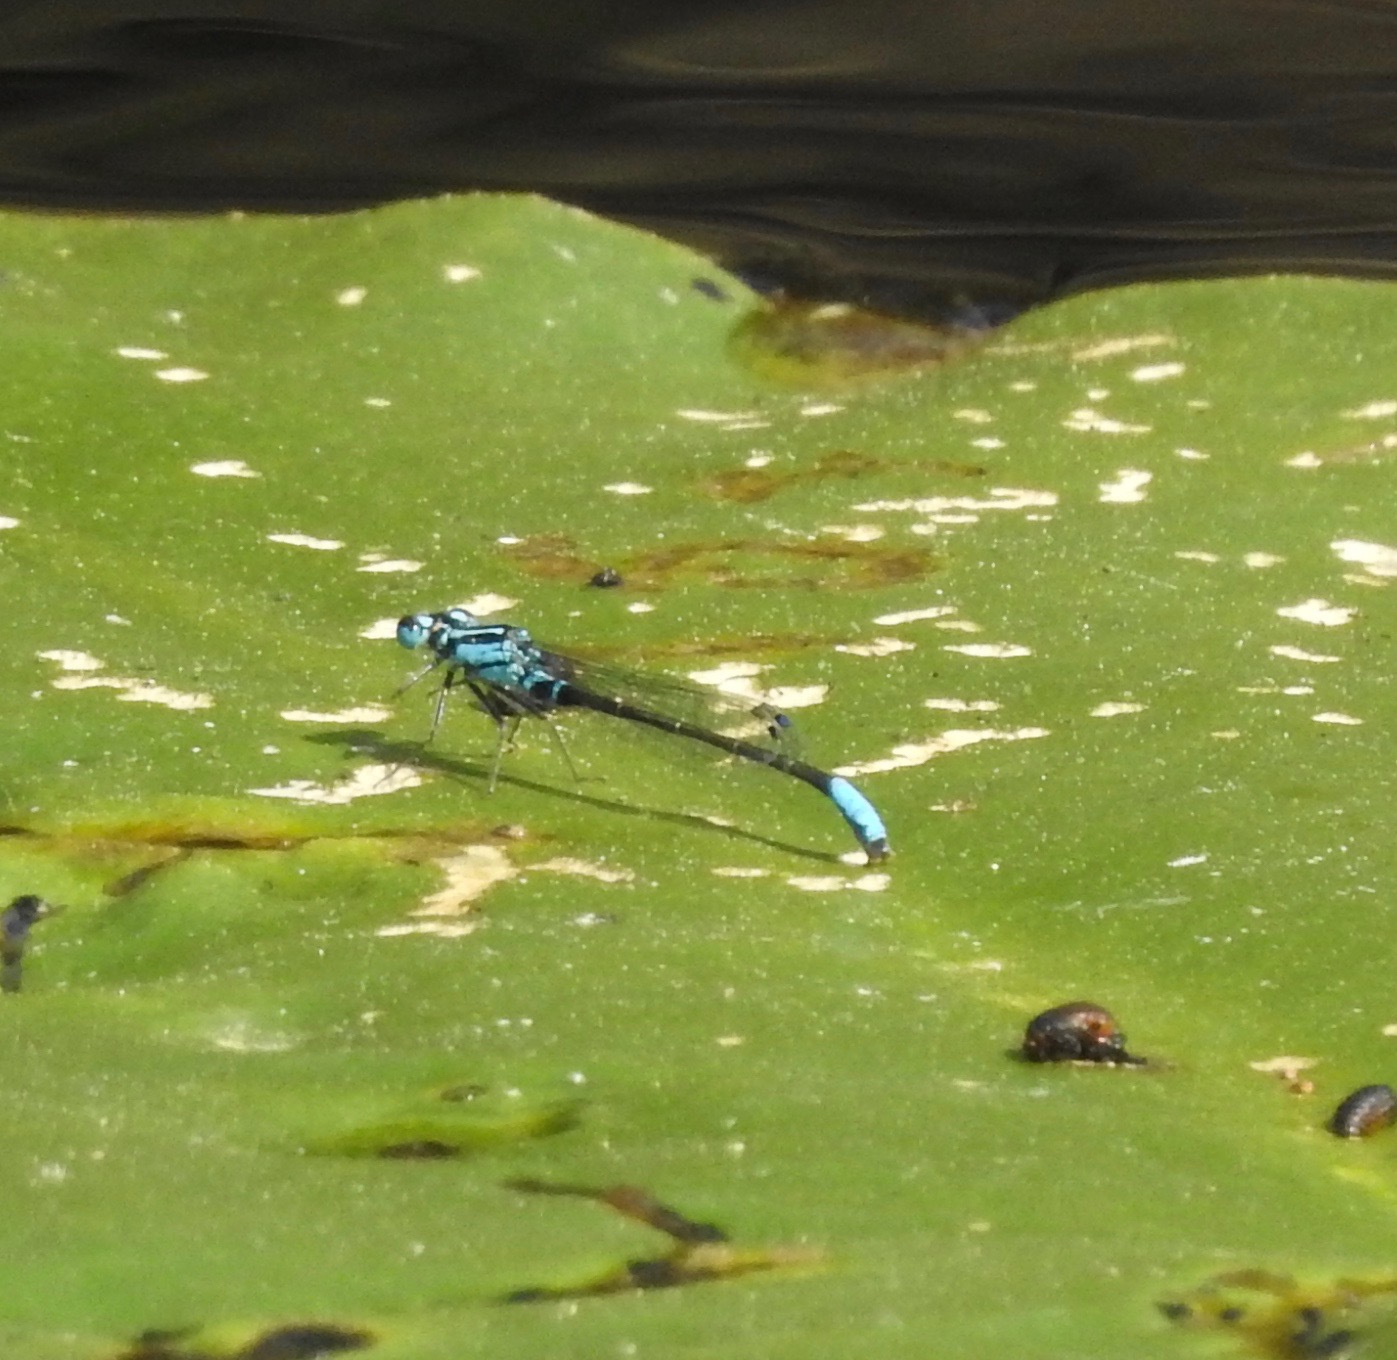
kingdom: Animalia
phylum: Arthropoda
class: Insecta
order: Odonata
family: Coenagrionidae
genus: Ischnura
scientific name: Ischnura kellicotti
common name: Lilypad forktail
